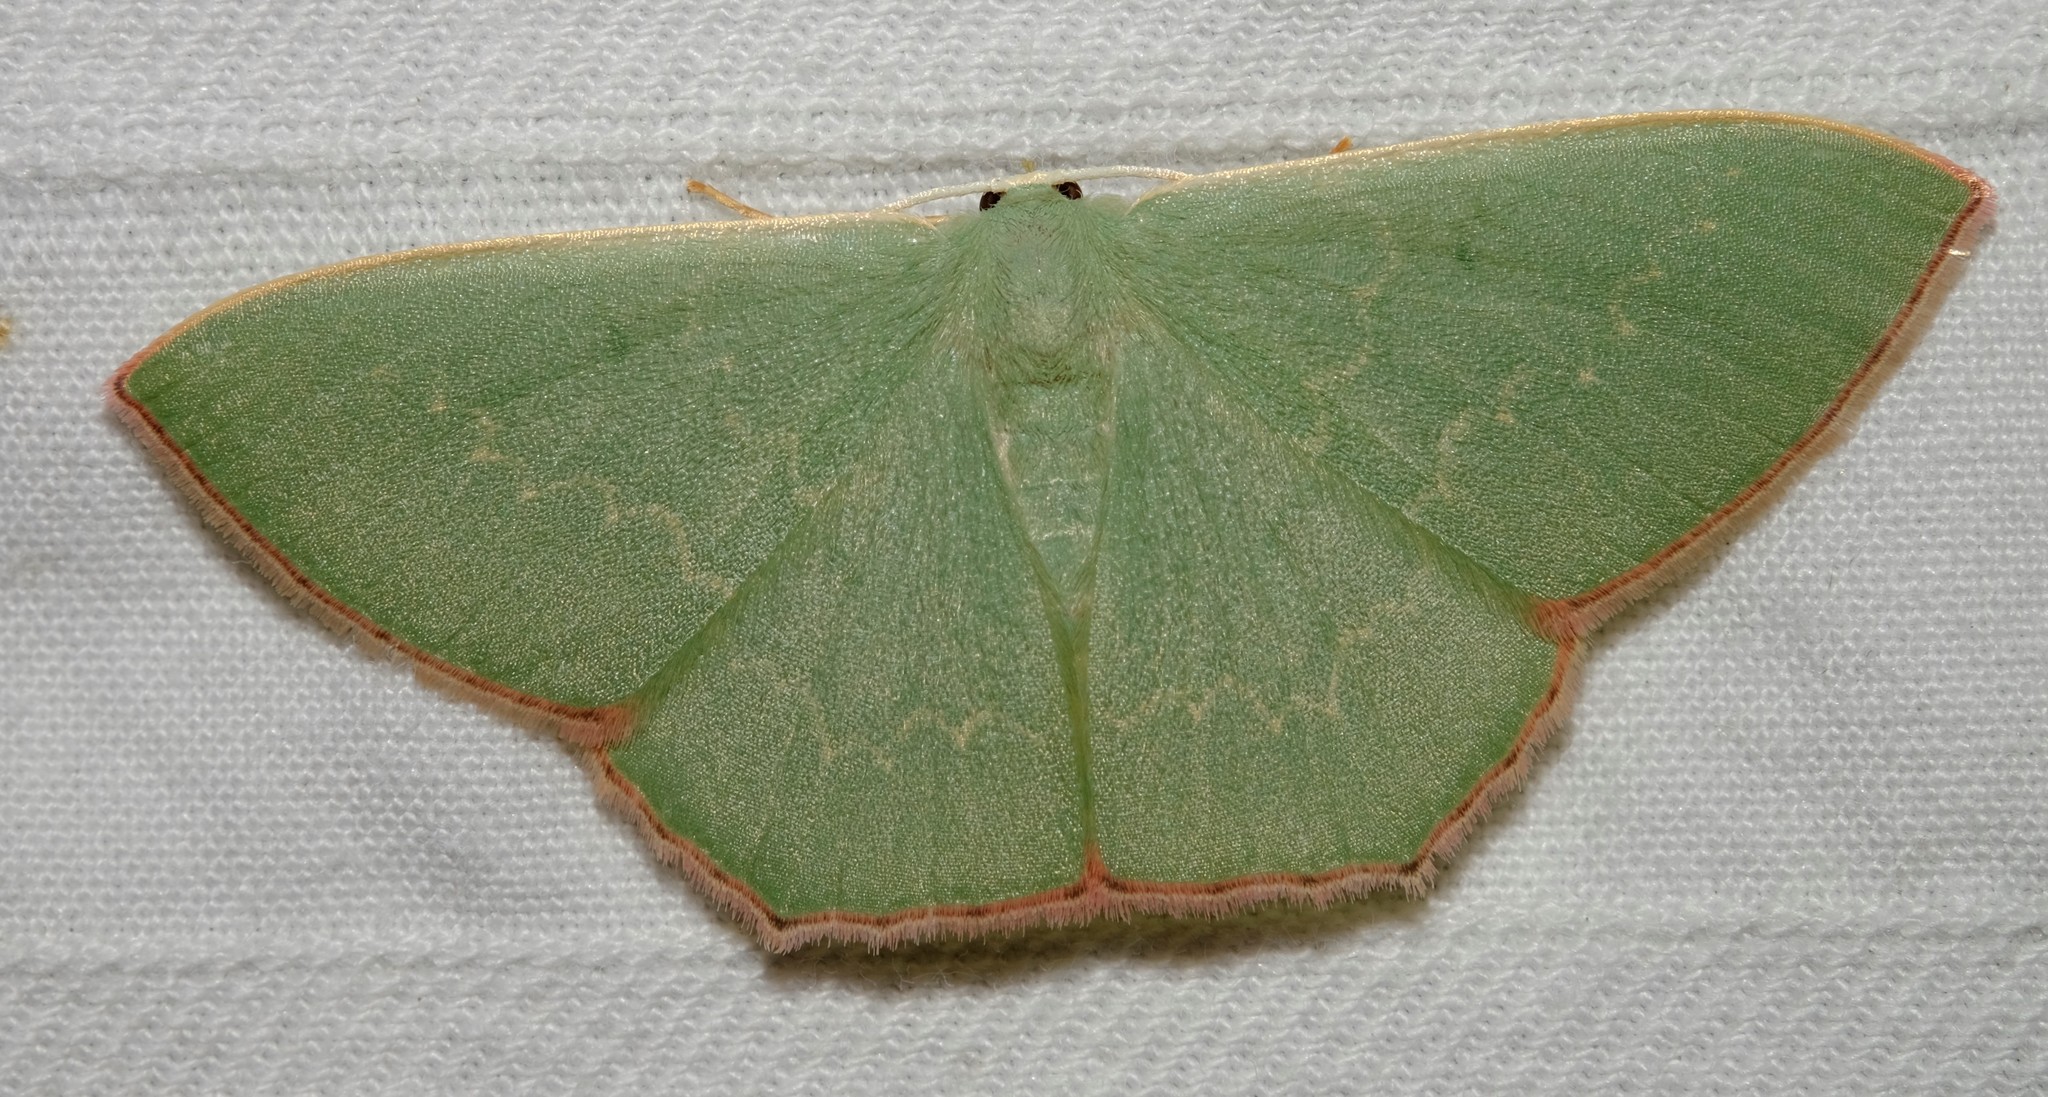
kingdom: Animalia
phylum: Arthropoda
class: Insecta
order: Lepidoptera
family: Geometridae
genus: Prasinocyma
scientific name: Prasinocyma semicrocea
